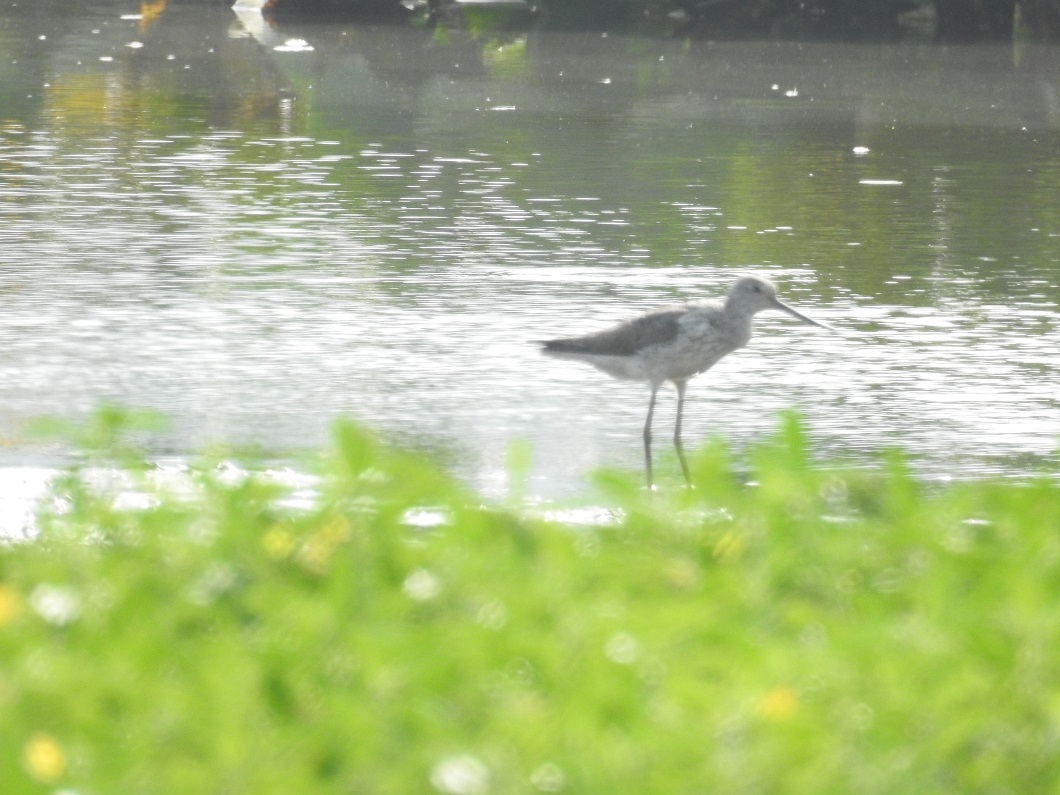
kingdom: Animalia
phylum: Chordata
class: Aves
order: Charadriiformes
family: Scolopacidae
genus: Tringa
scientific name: Tringa nebularia
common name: Common greenshank
